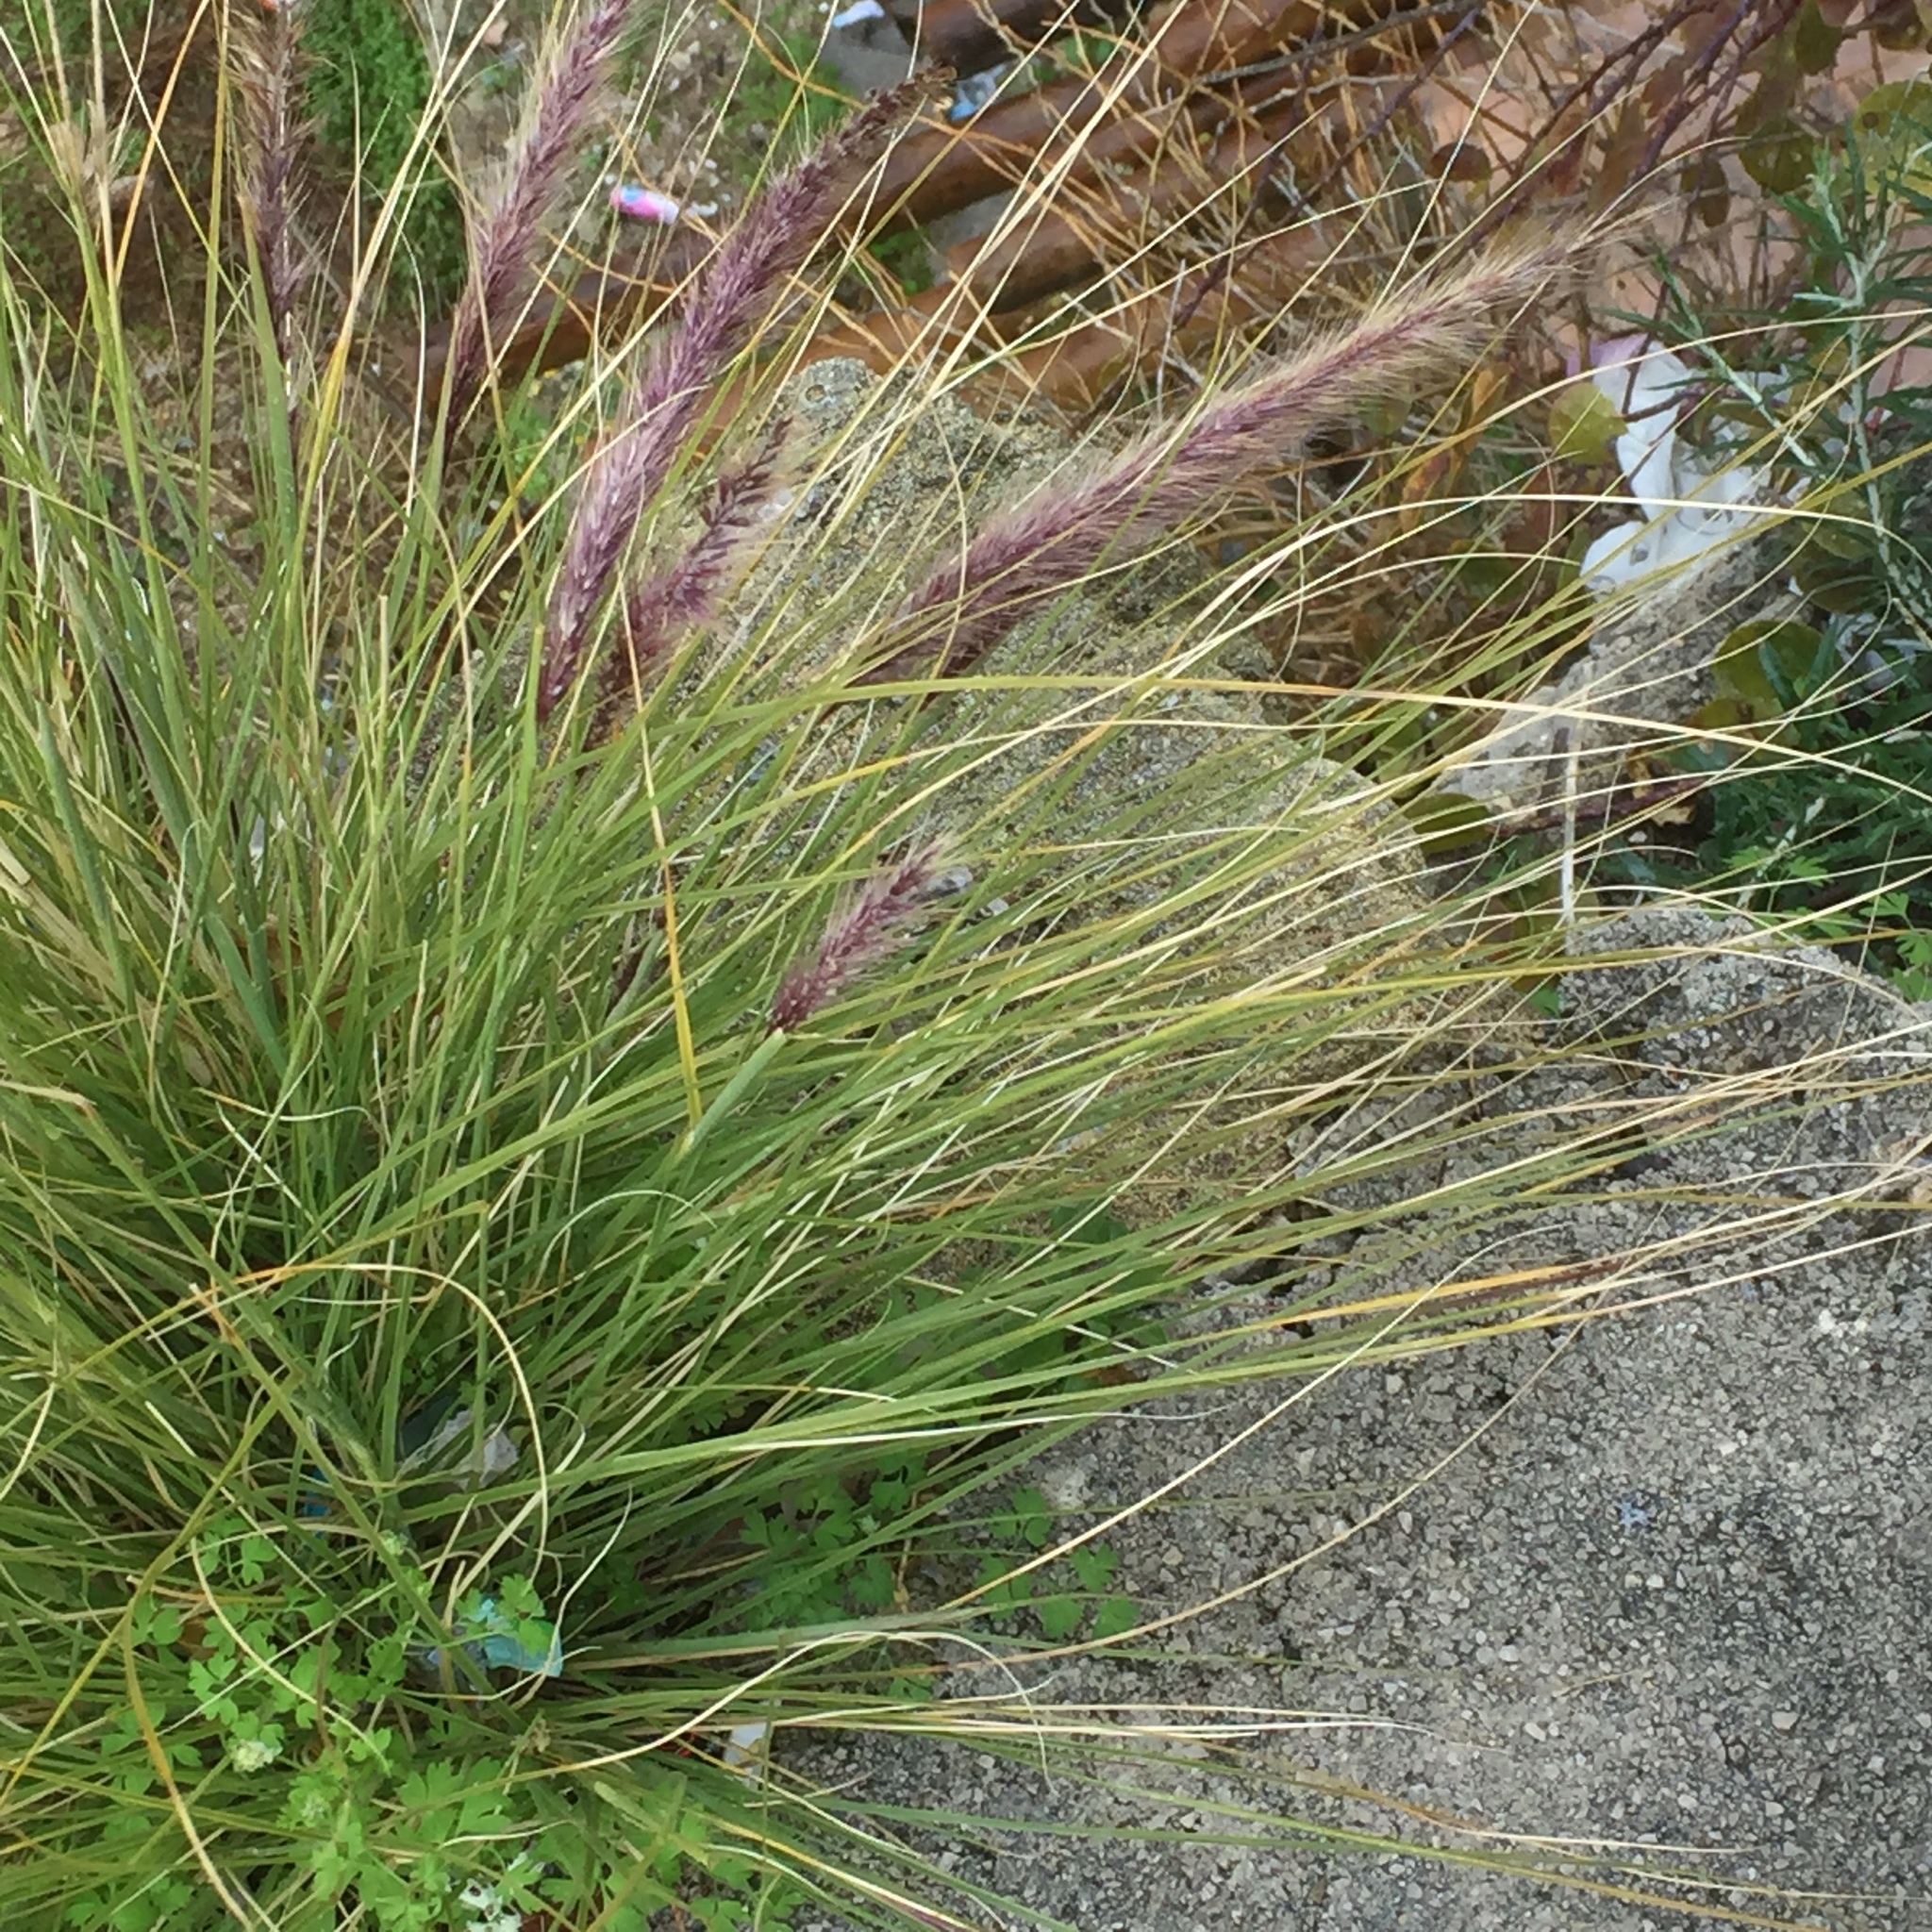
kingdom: Plantae
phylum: Tracheophyta
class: Liliopsida
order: Poales
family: Poaceae
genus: Cenchrus
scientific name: Cenchrus setaceus
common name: Crimson fountaingrass
